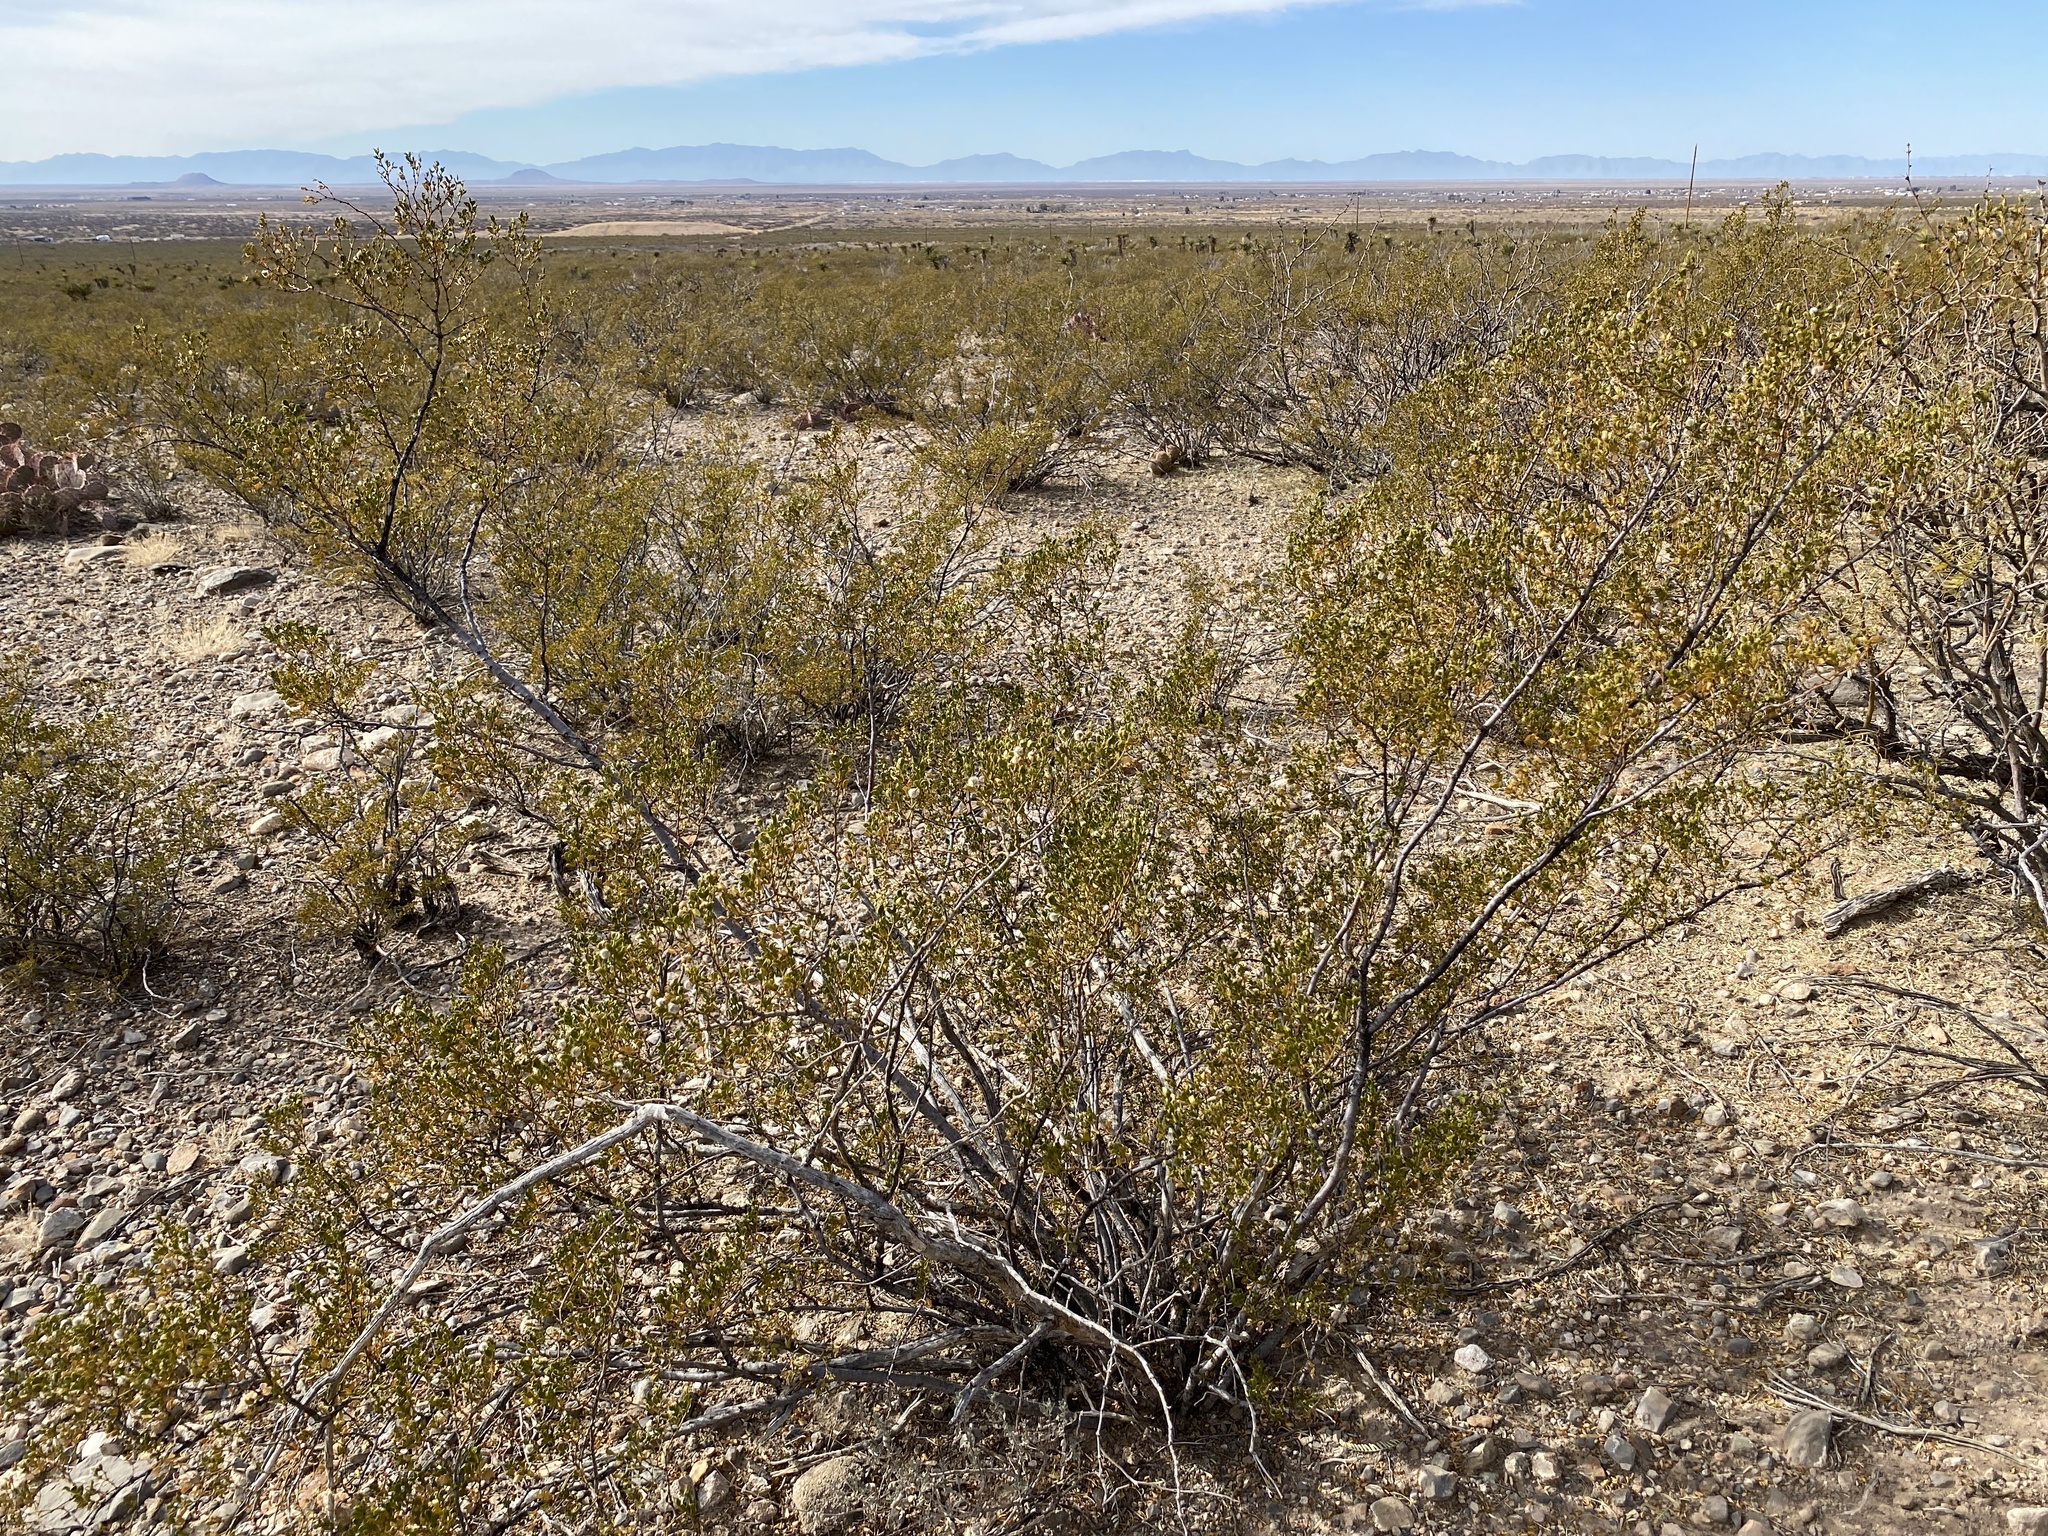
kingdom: Plantae
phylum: Tracheophyta
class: Magnoliopsida
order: Zygophyllales
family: Zygophyllaceae
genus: Larrea
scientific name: Larrea tridentata
